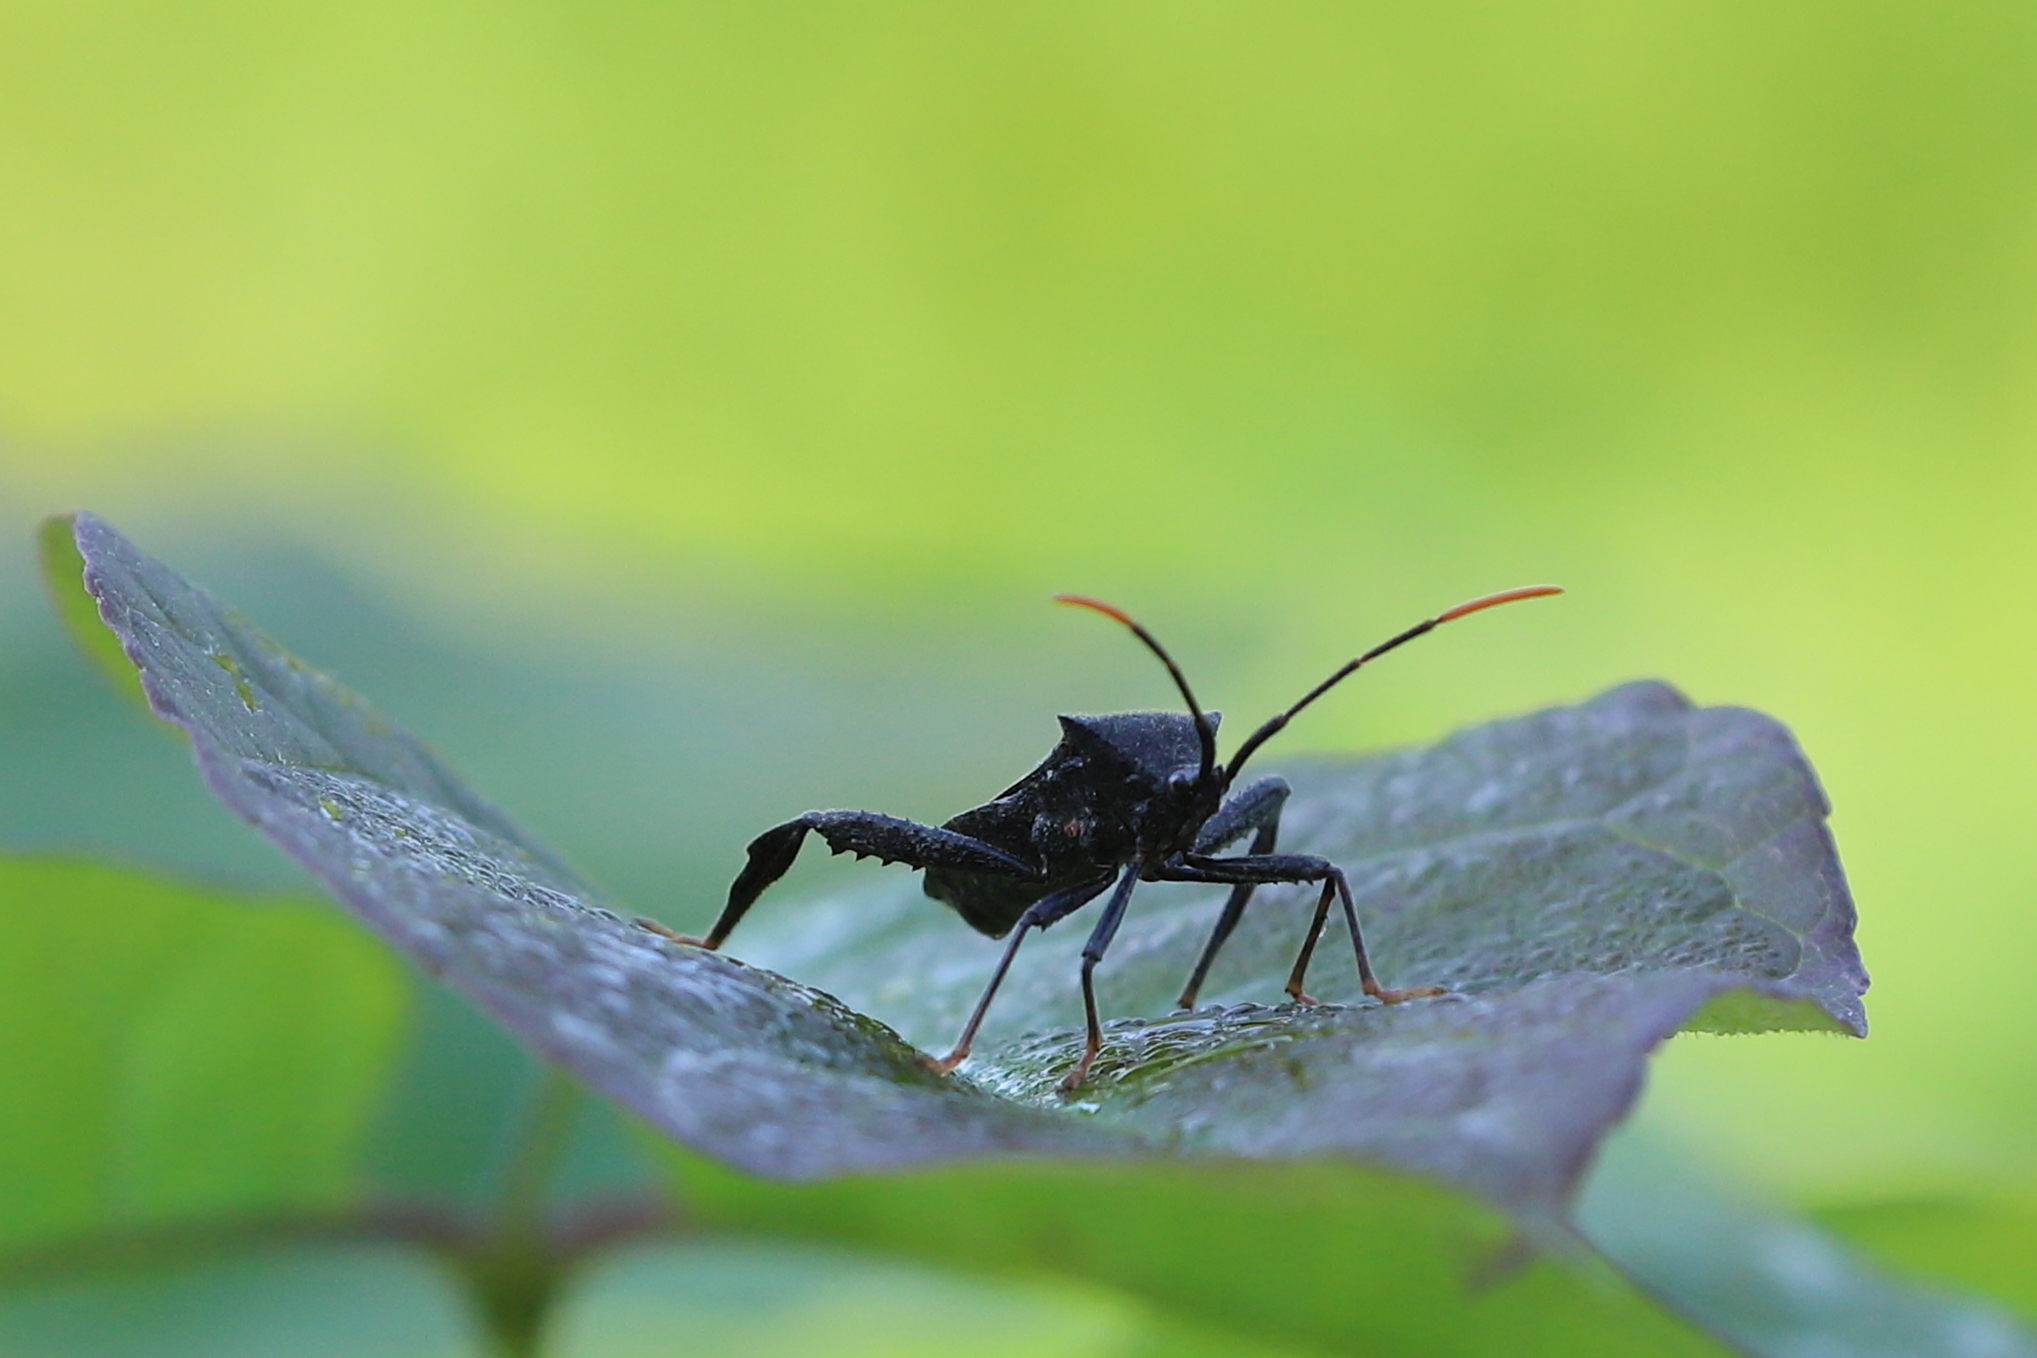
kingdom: Animalia
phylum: Arthropoda
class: Insecta
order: Hemiptera
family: Coreidae
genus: Acanthocephala
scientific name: Acanthocephala terminalis
